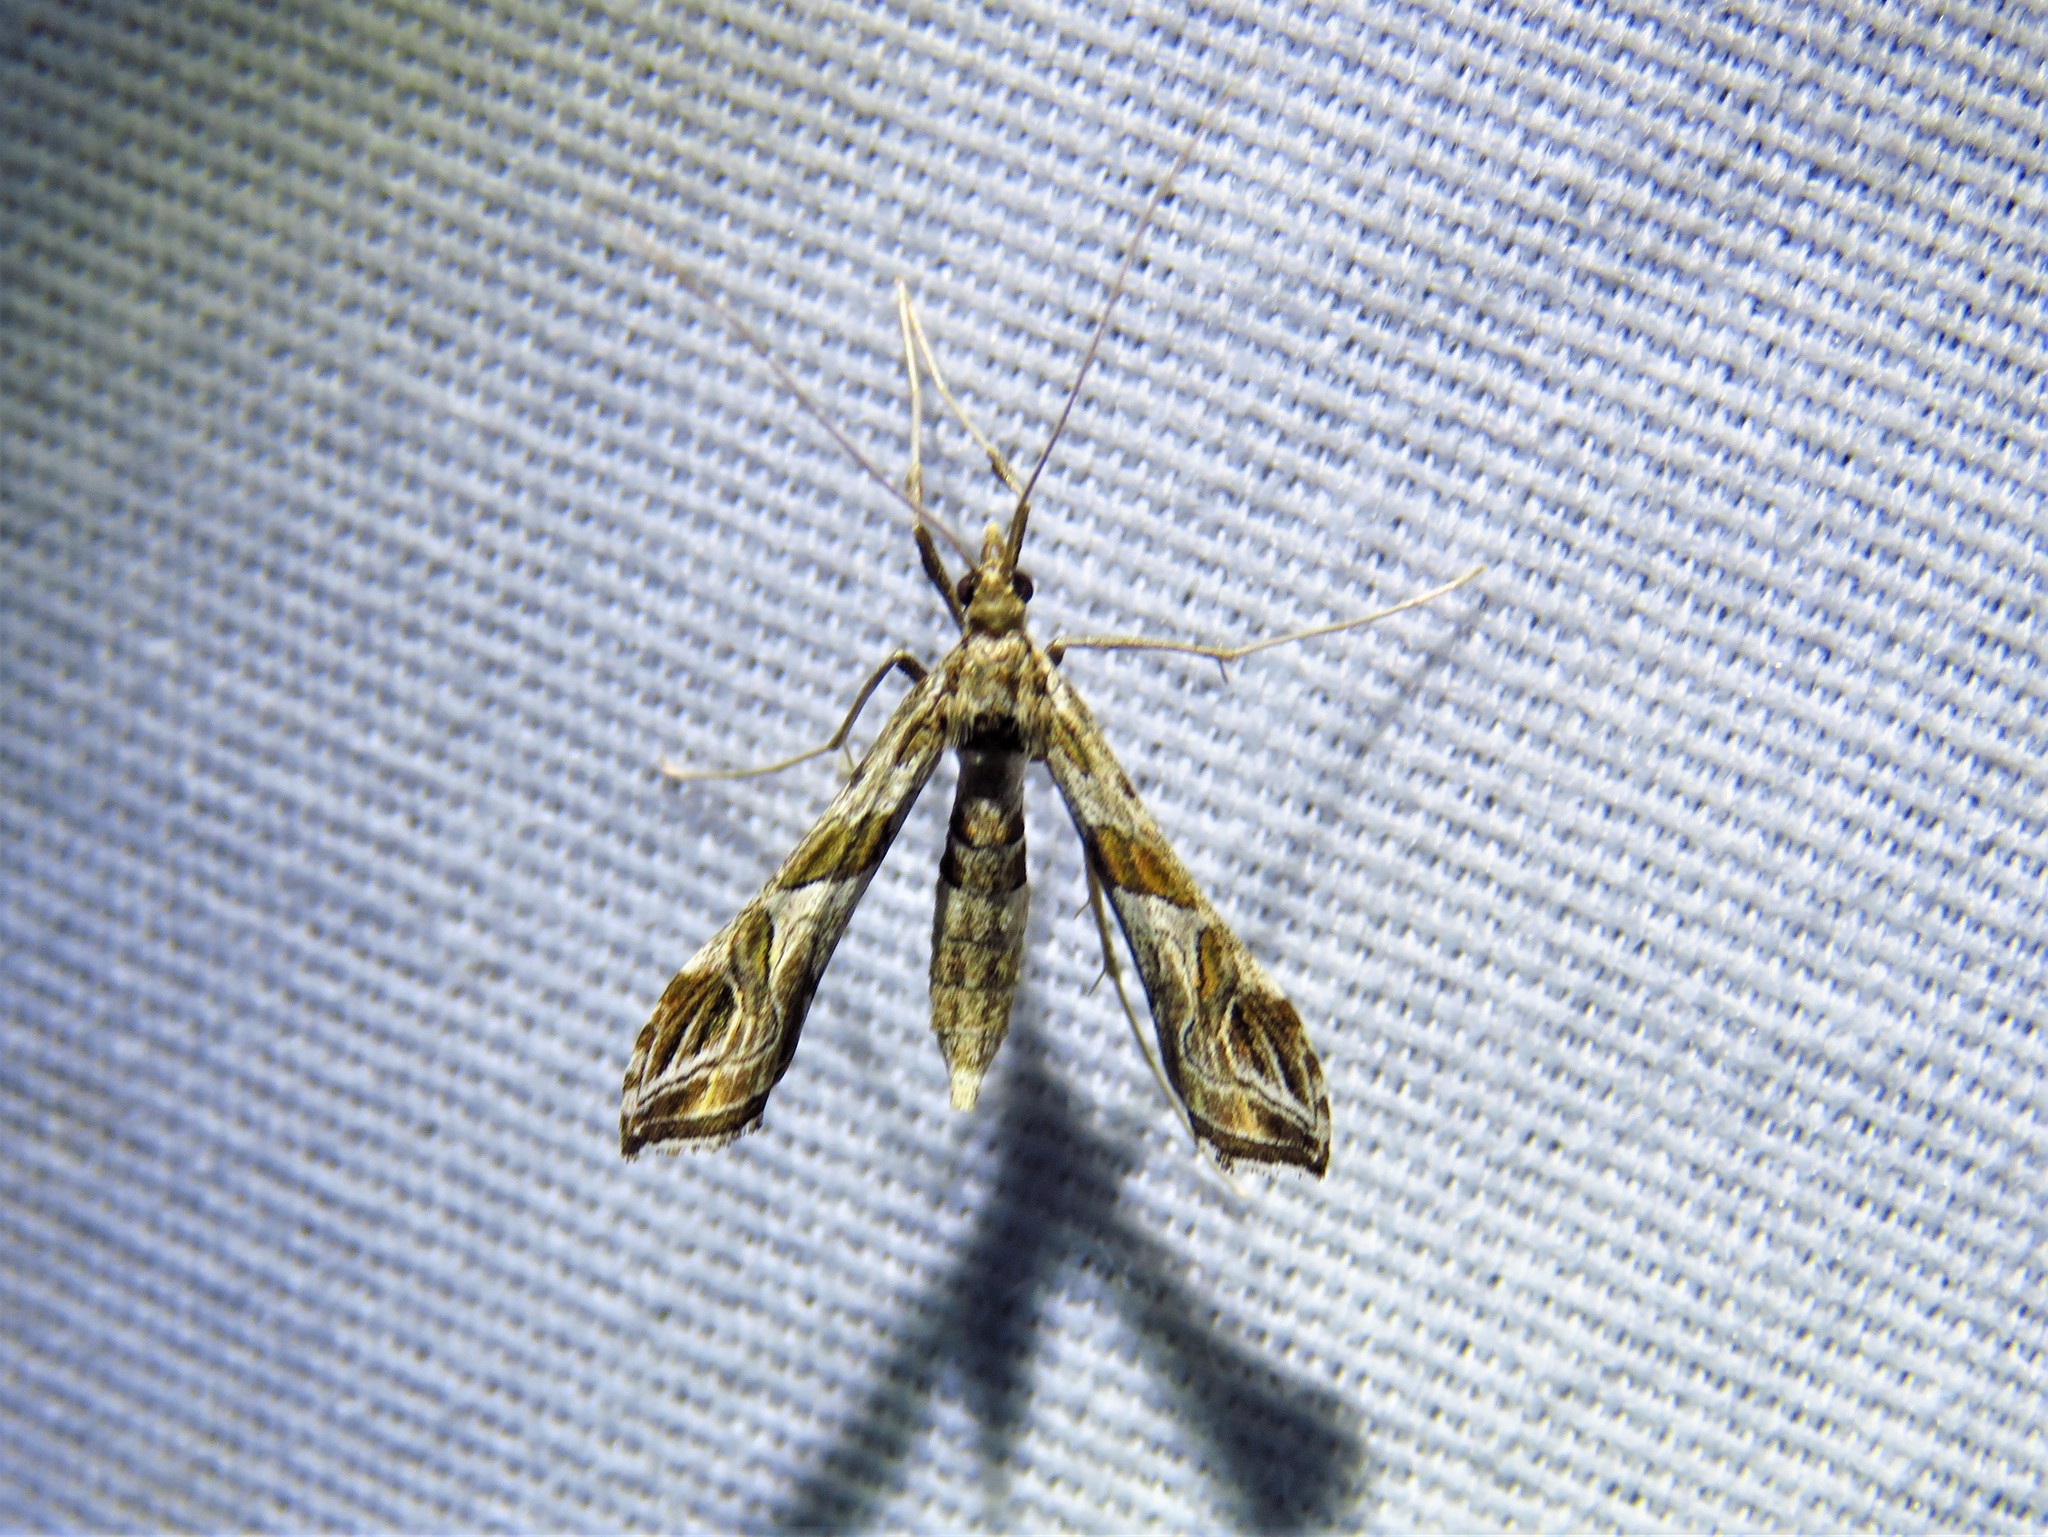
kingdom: Animalia
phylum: Arthropoda
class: Insecta
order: Lepidoptera
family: Crambidae
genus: Lineodes
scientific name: Lineodes interrupta
